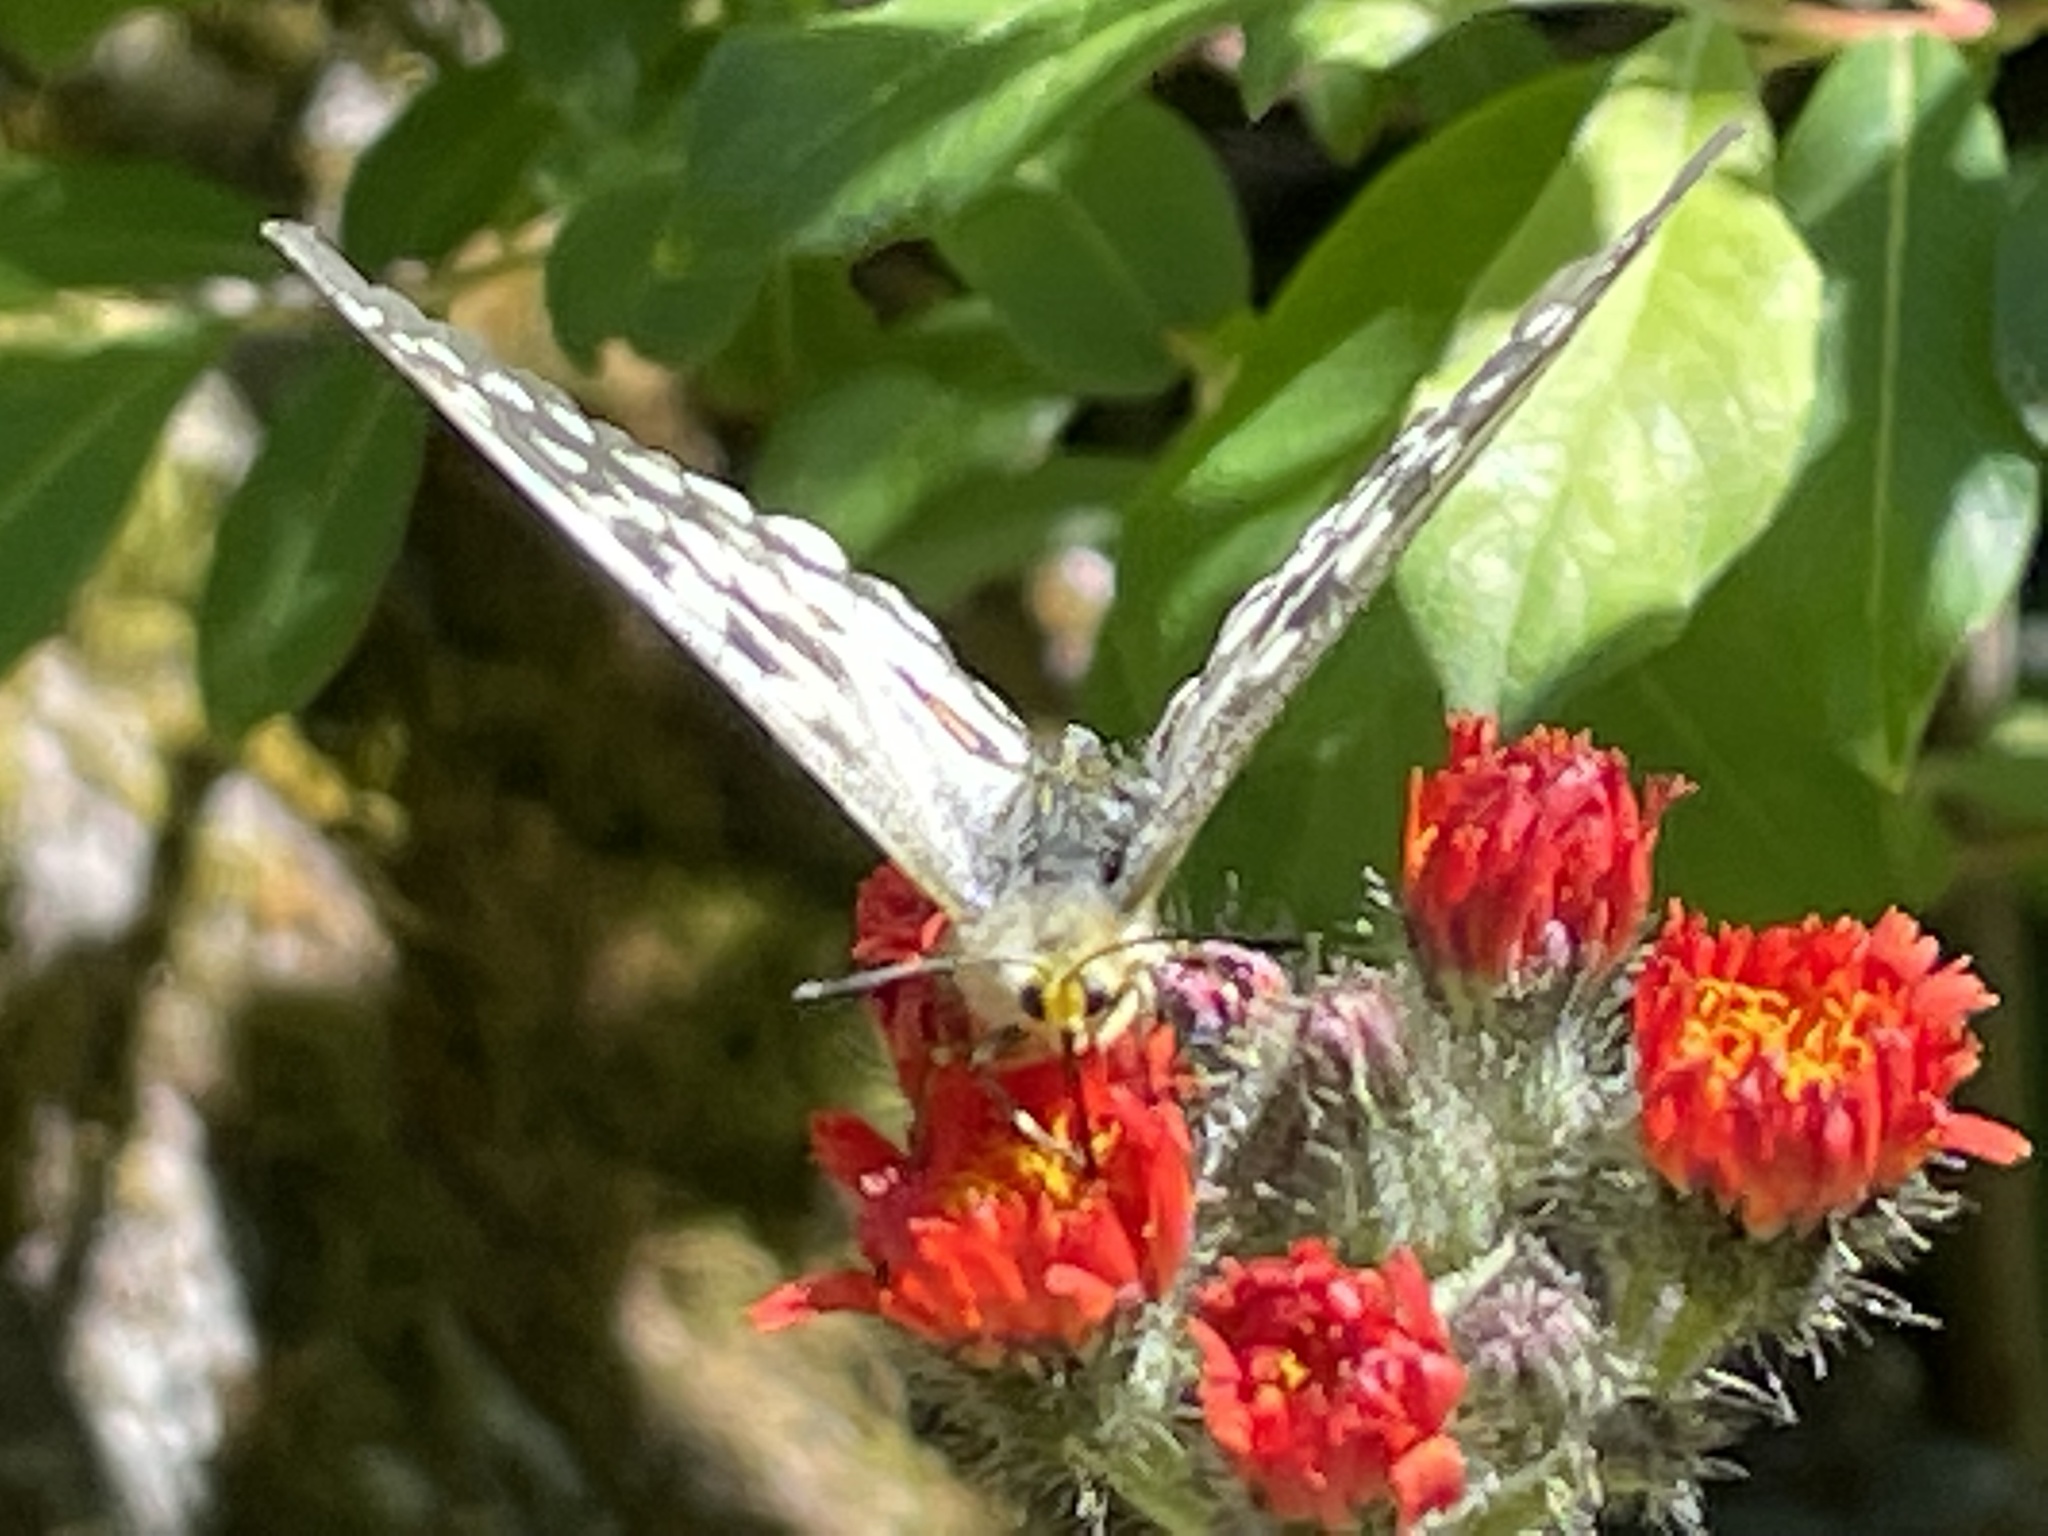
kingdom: Animalia
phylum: Arthropoda
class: Insecta
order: Lepidoptera
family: Papilionidae
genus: Parnassius
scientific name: Parnassius clodius
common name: American apollo
